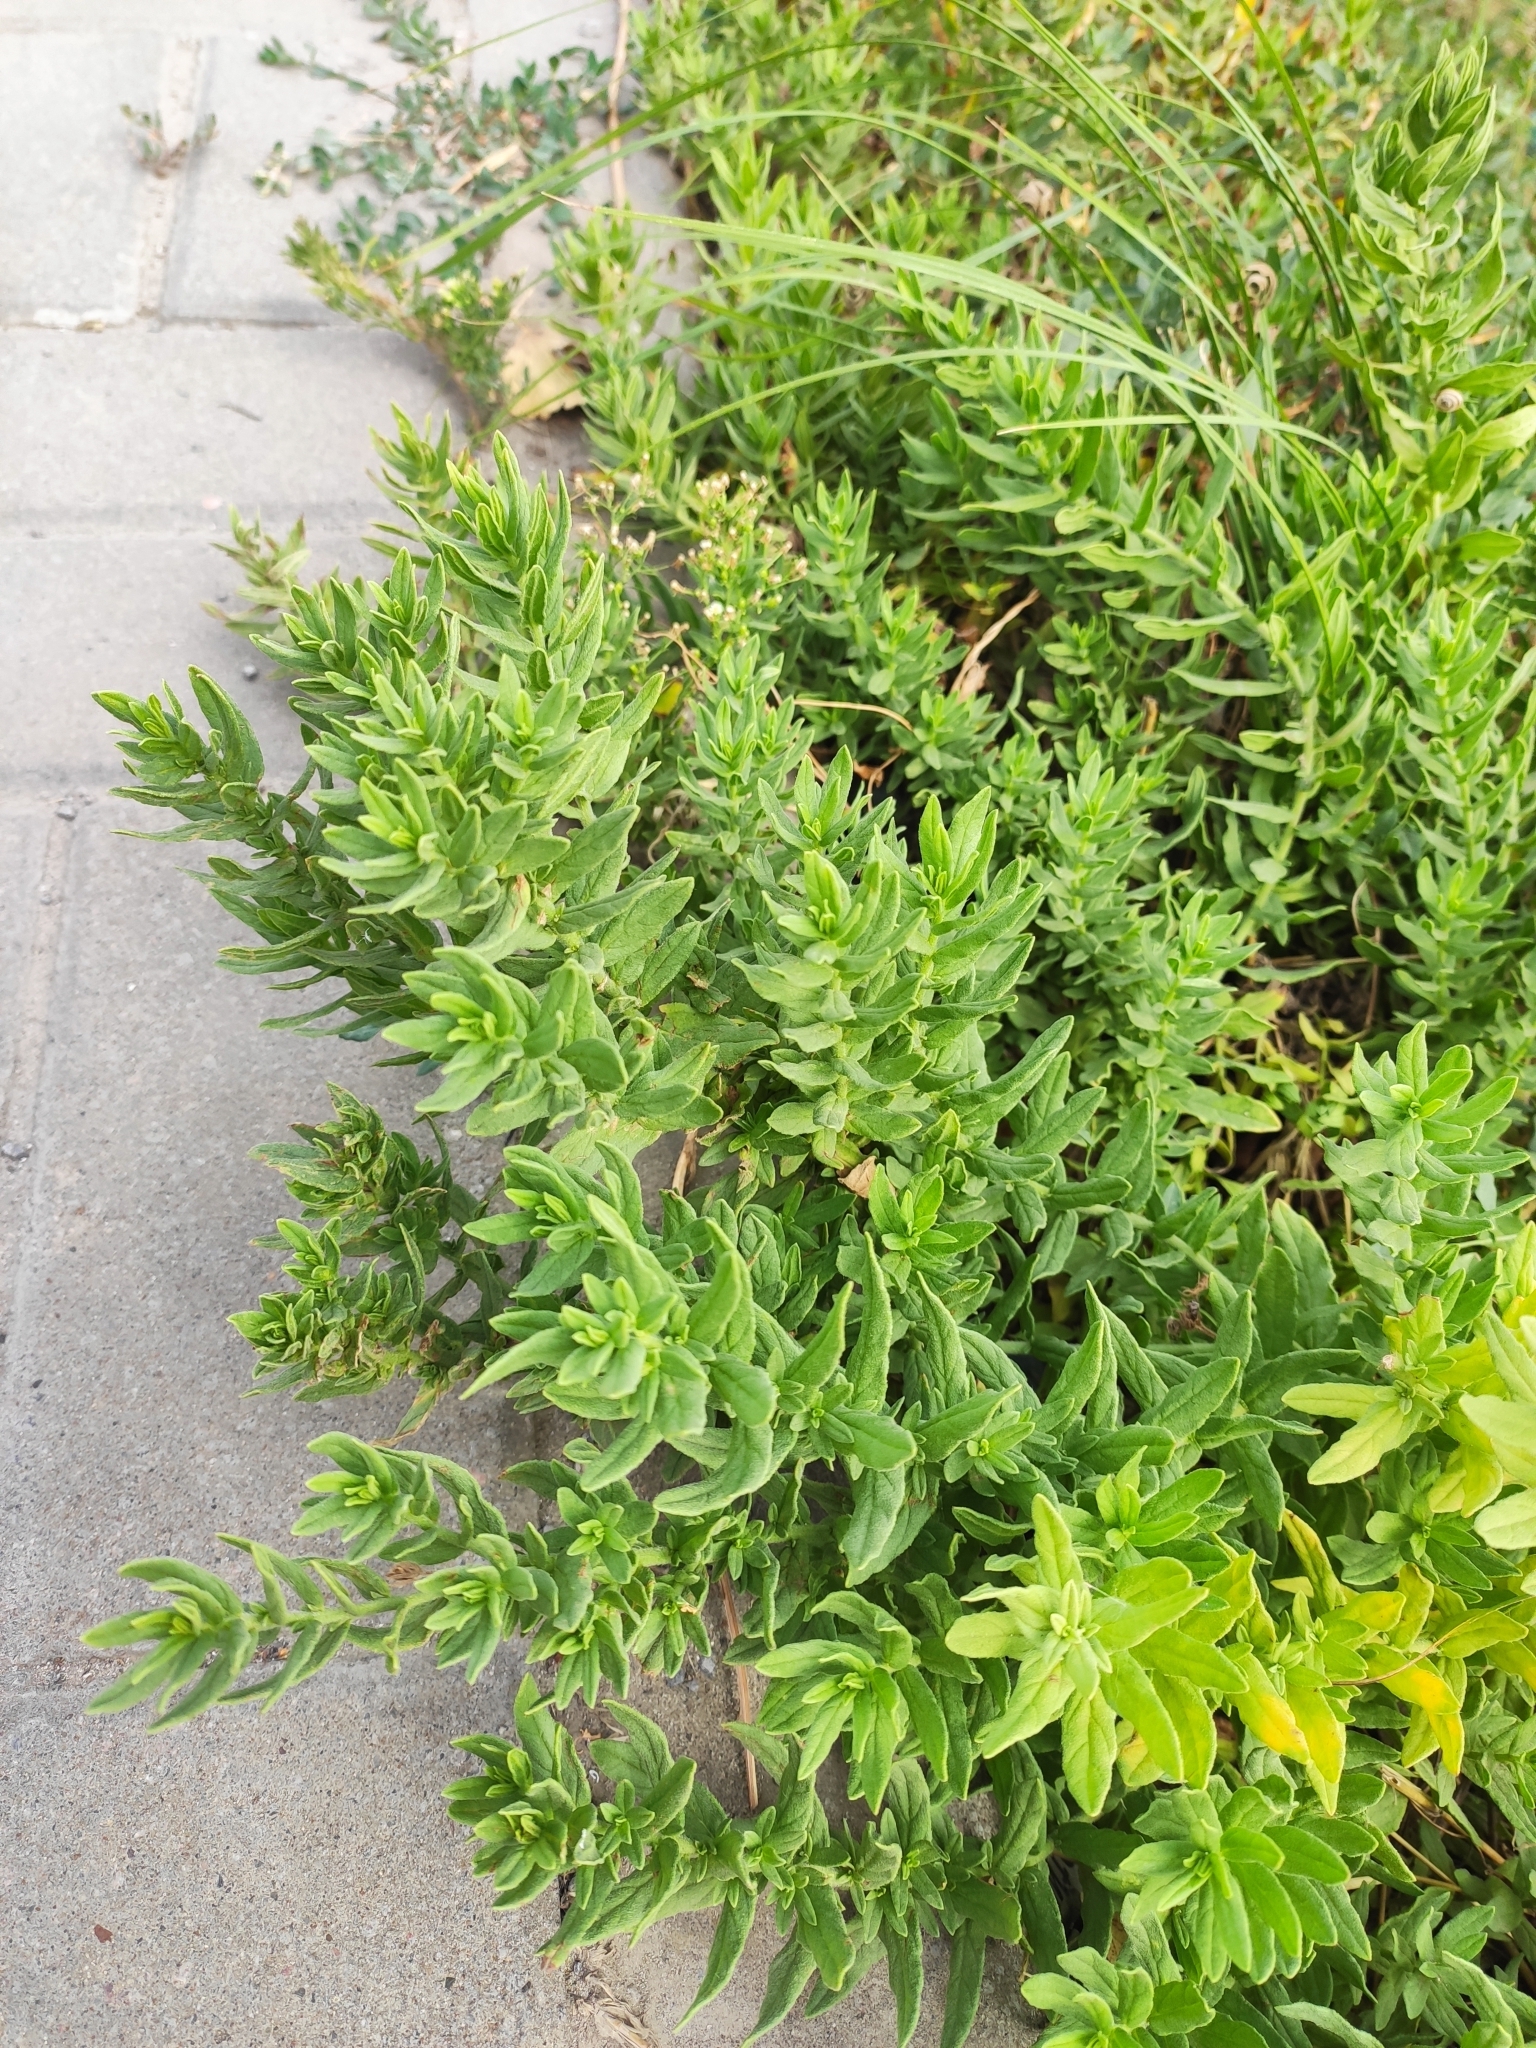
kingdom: Plantae
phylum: Tracheophyta
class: Magnoliopsida
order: Boraginales
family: Heliotropiaceae
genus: Tournefortia
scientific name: Tournefortia sibirica
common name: Siberian sea rosemary
